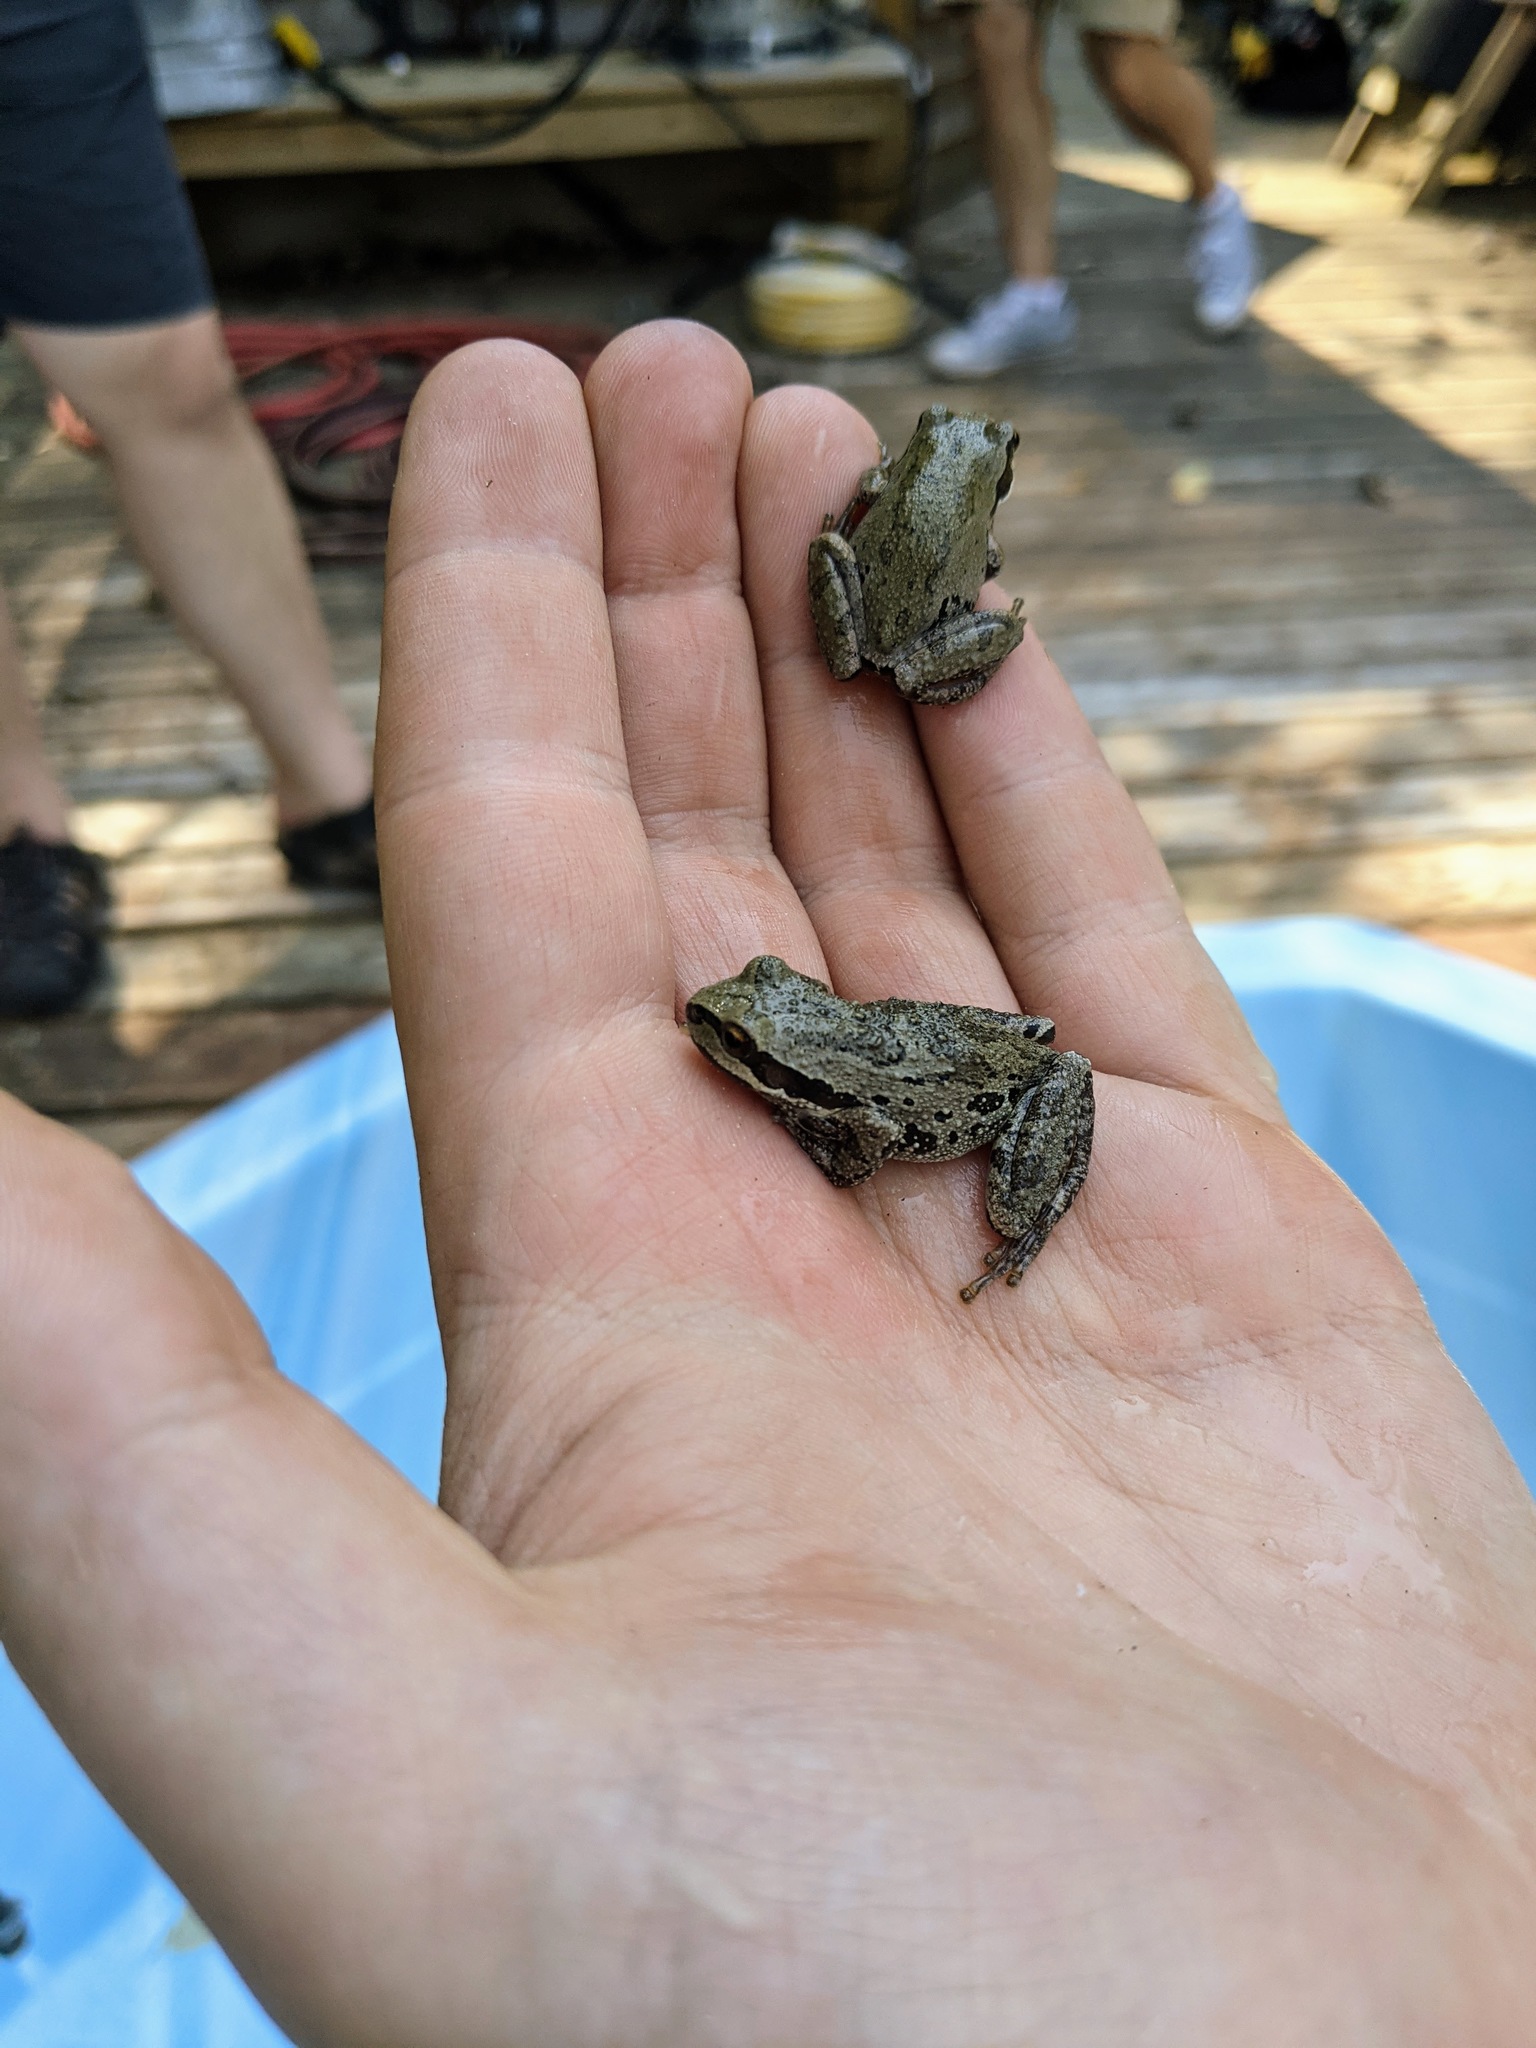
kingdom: Animalia
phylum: Chordata
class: Amphibia
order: Anura
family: Hylidae
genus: Pseudacris
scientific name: Pseudacris regilla
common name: Pacific chorus frog
